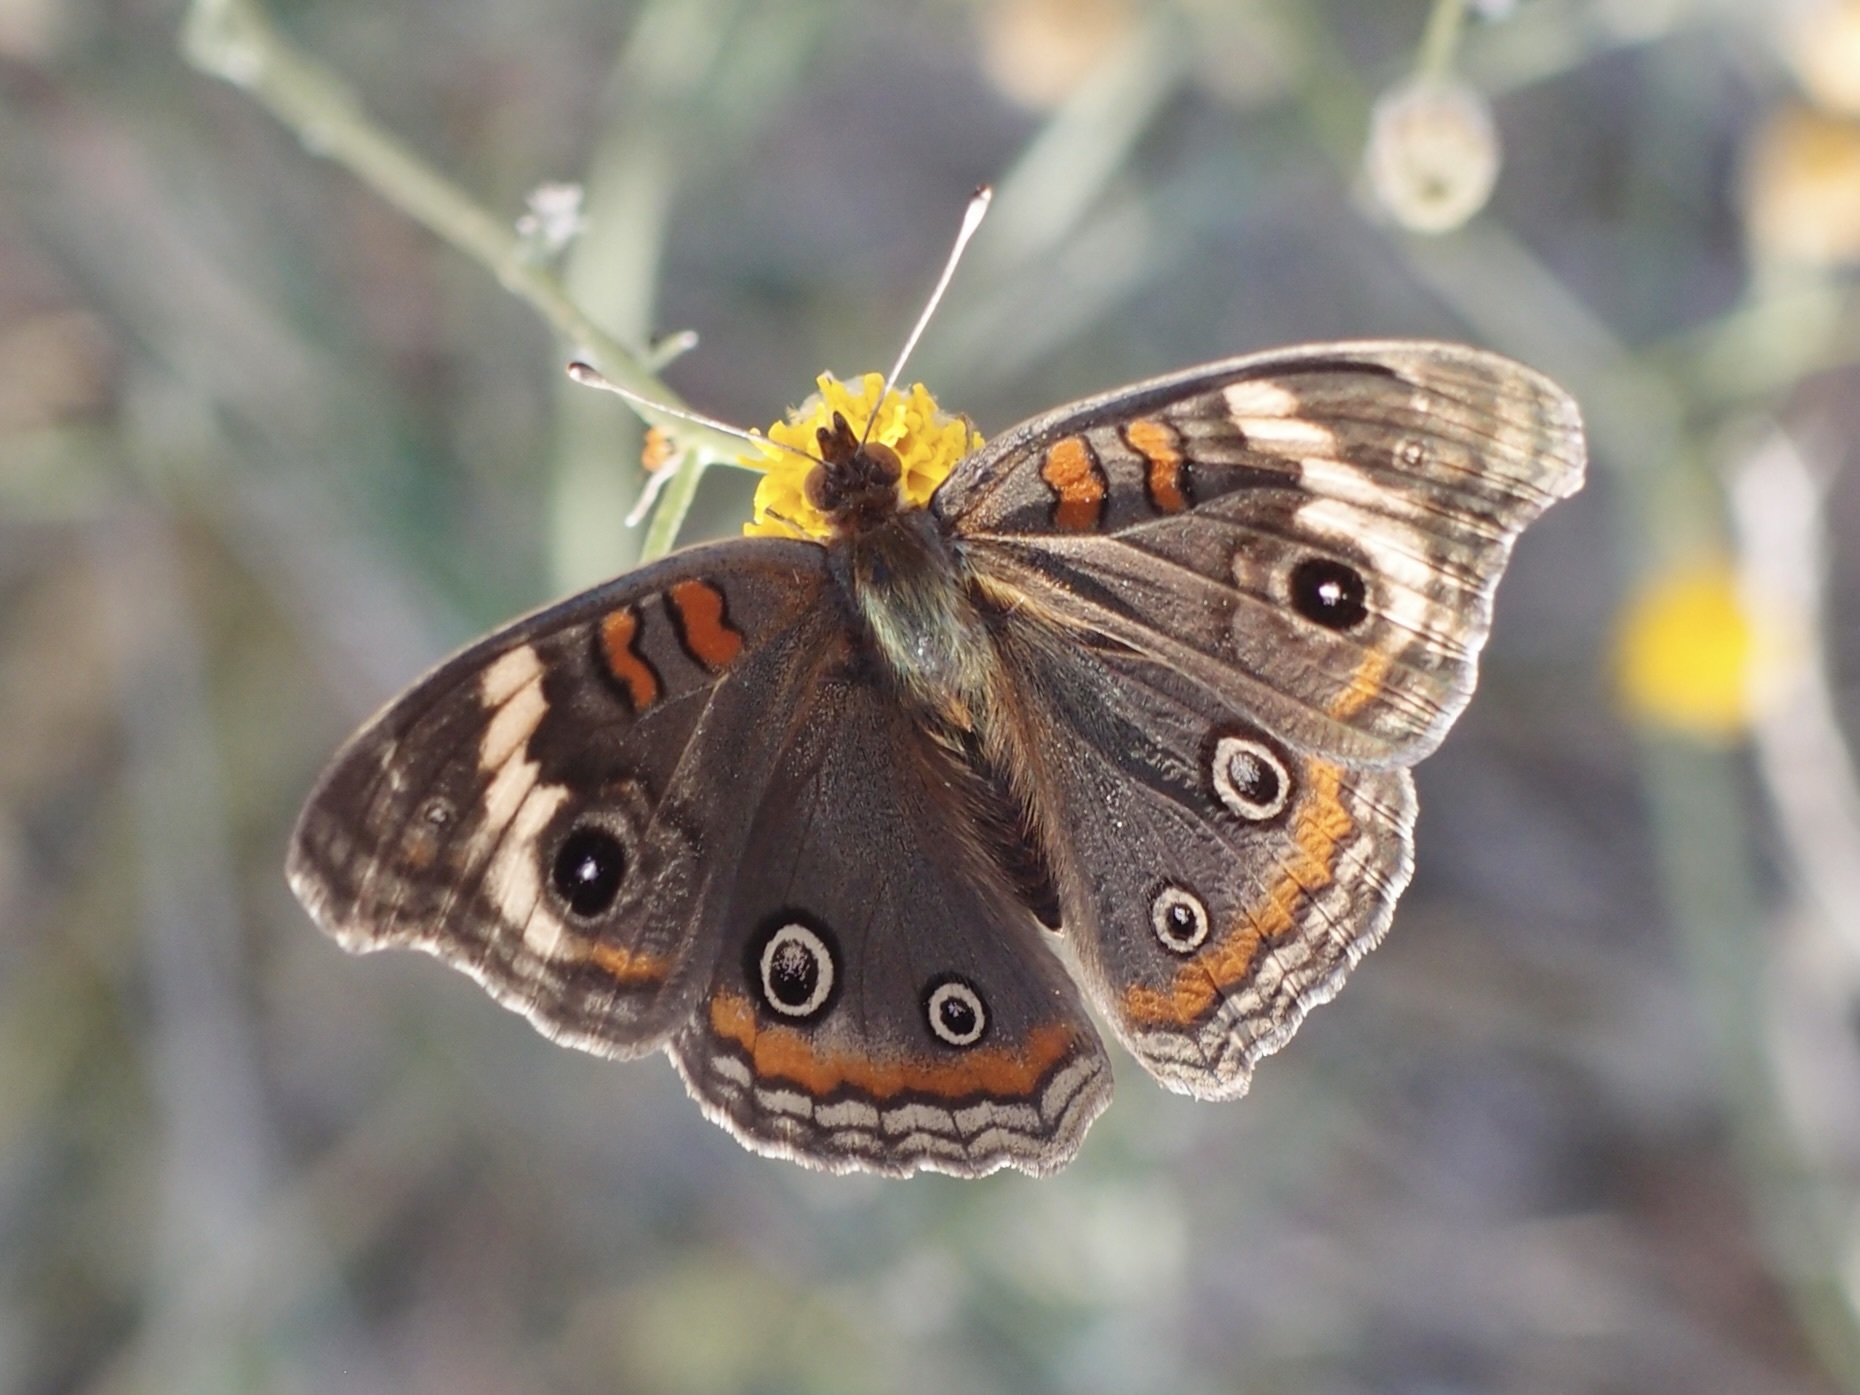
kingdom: Animalia
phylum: Arthropoda
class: Insecta
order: Lepidoptera
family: Nymphalidae
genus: Junonia
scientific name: Junonia pacoma
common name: Pacific mangrove buckeye
